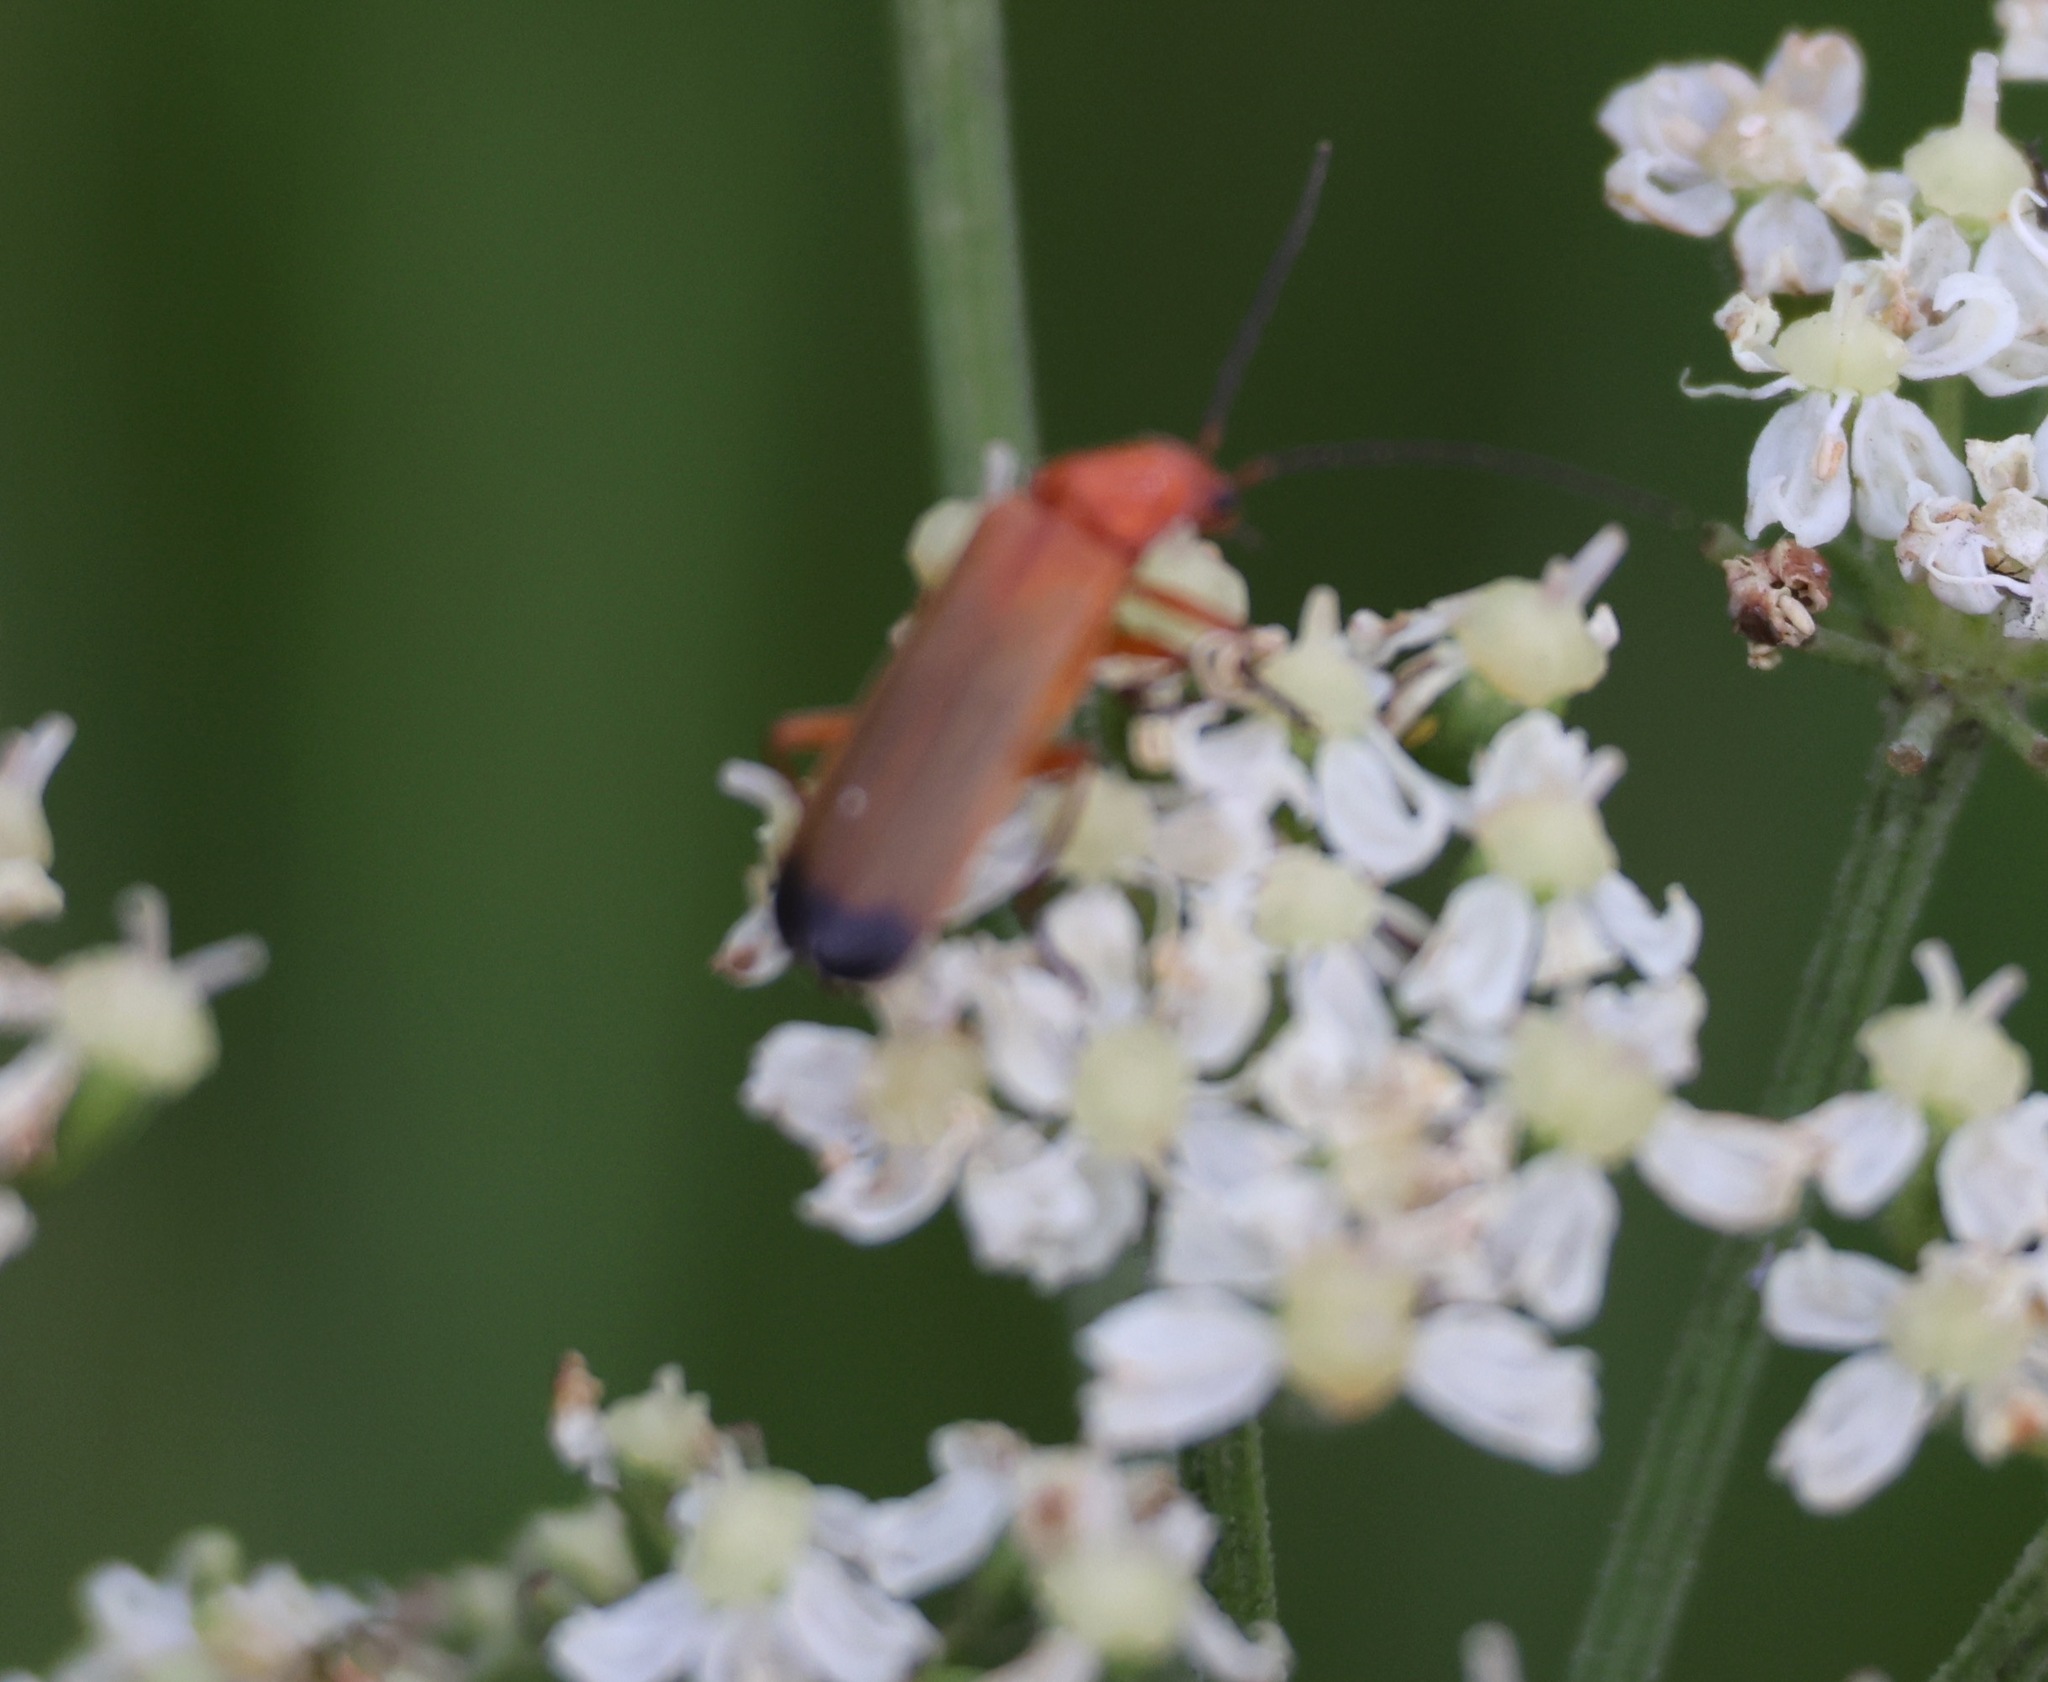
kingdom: Animalia
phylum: Arthropoda
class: Insecta
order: Coleoptera
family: Cantharidae
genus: Rhagonycha
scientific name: Rhagonycha fulva
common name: Common red soldier beetle
